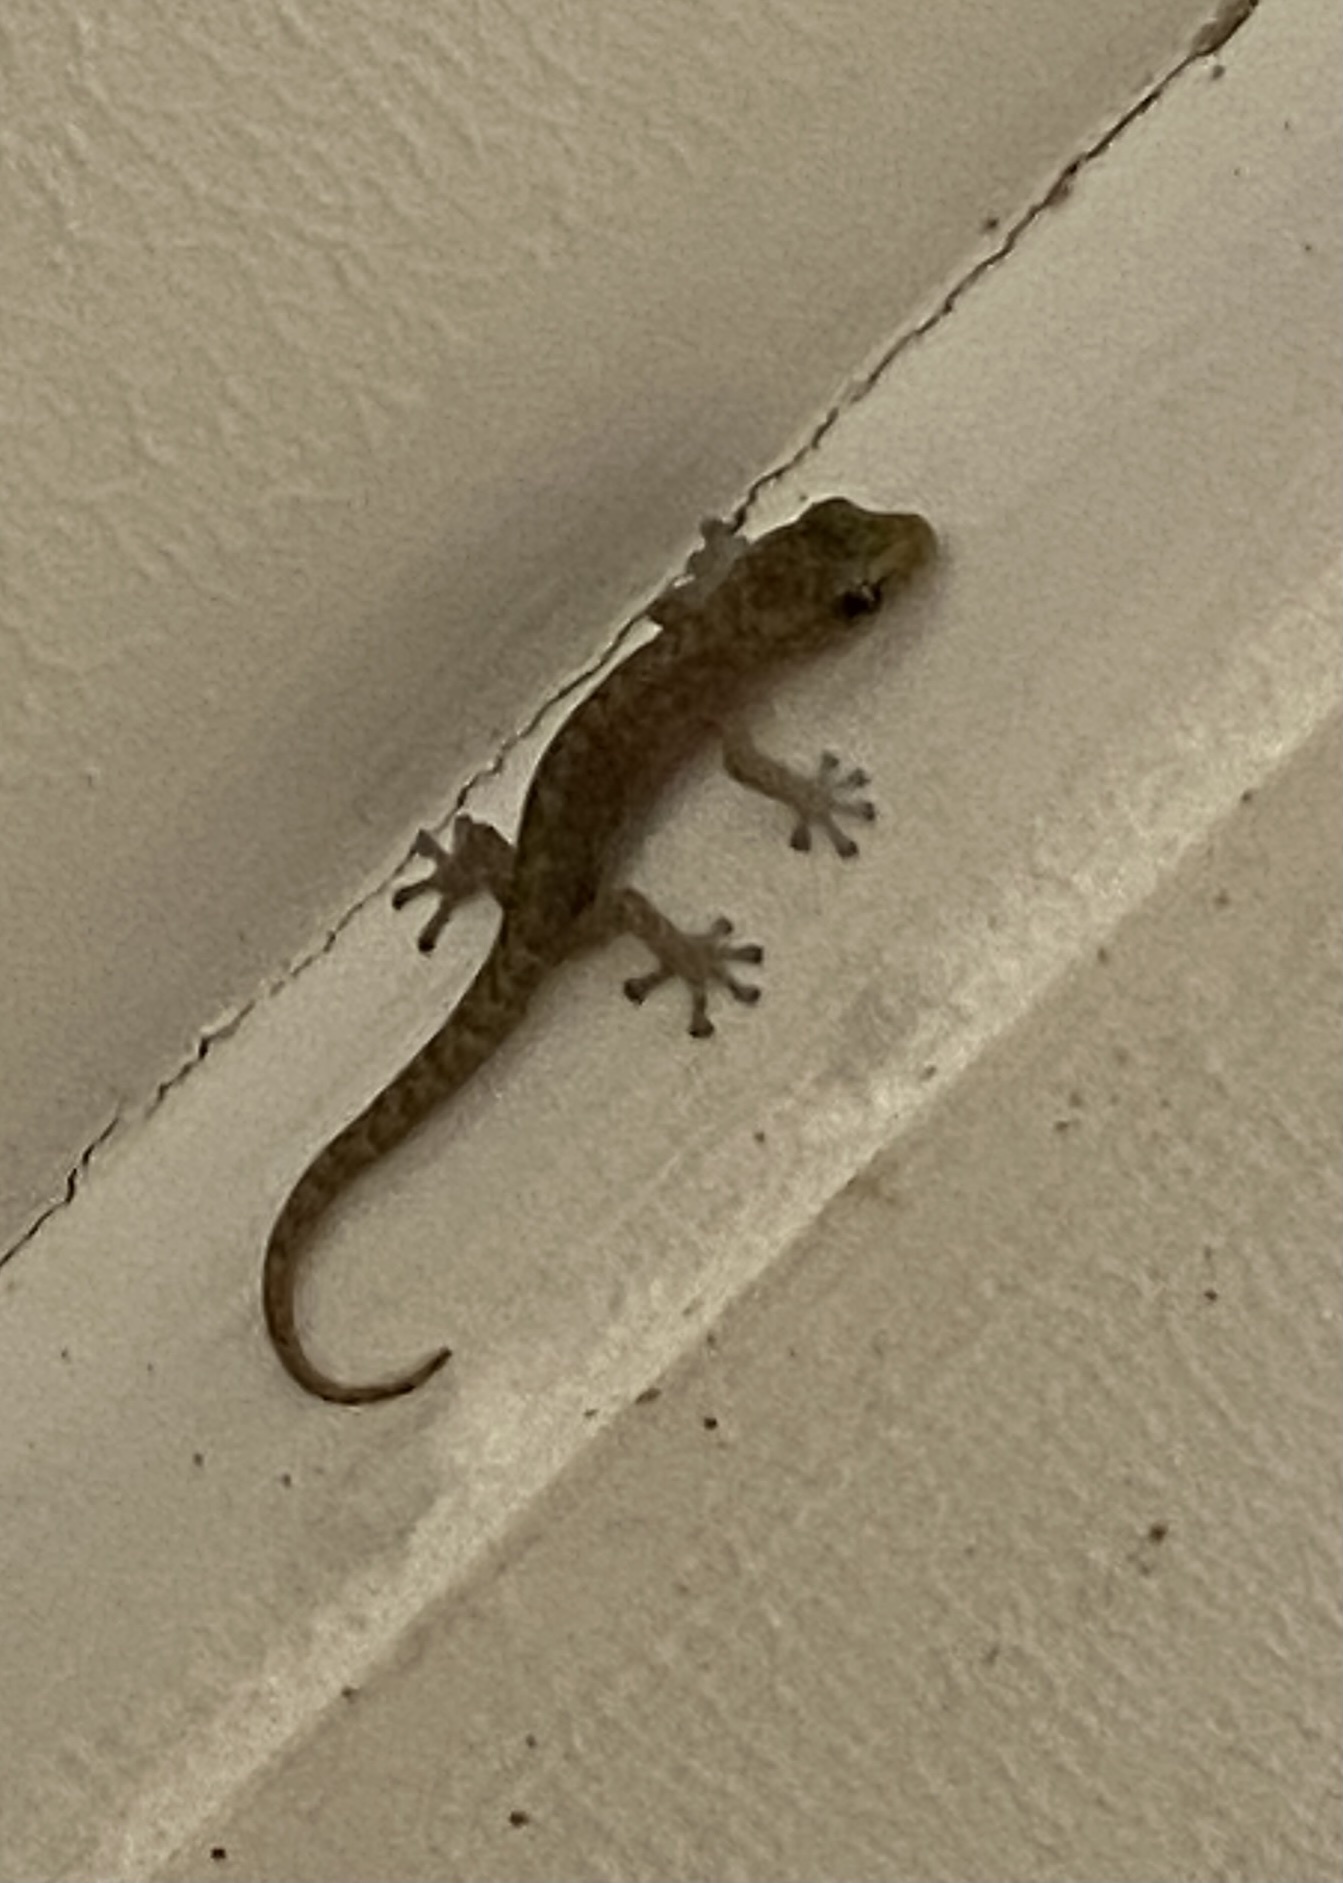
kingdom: Animalia
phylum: Chordata
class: Squamata
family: Gekkonidae
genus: Afrogecko
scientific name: Afrogecko porphyreus
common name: Marbled leaf-toed gecko
